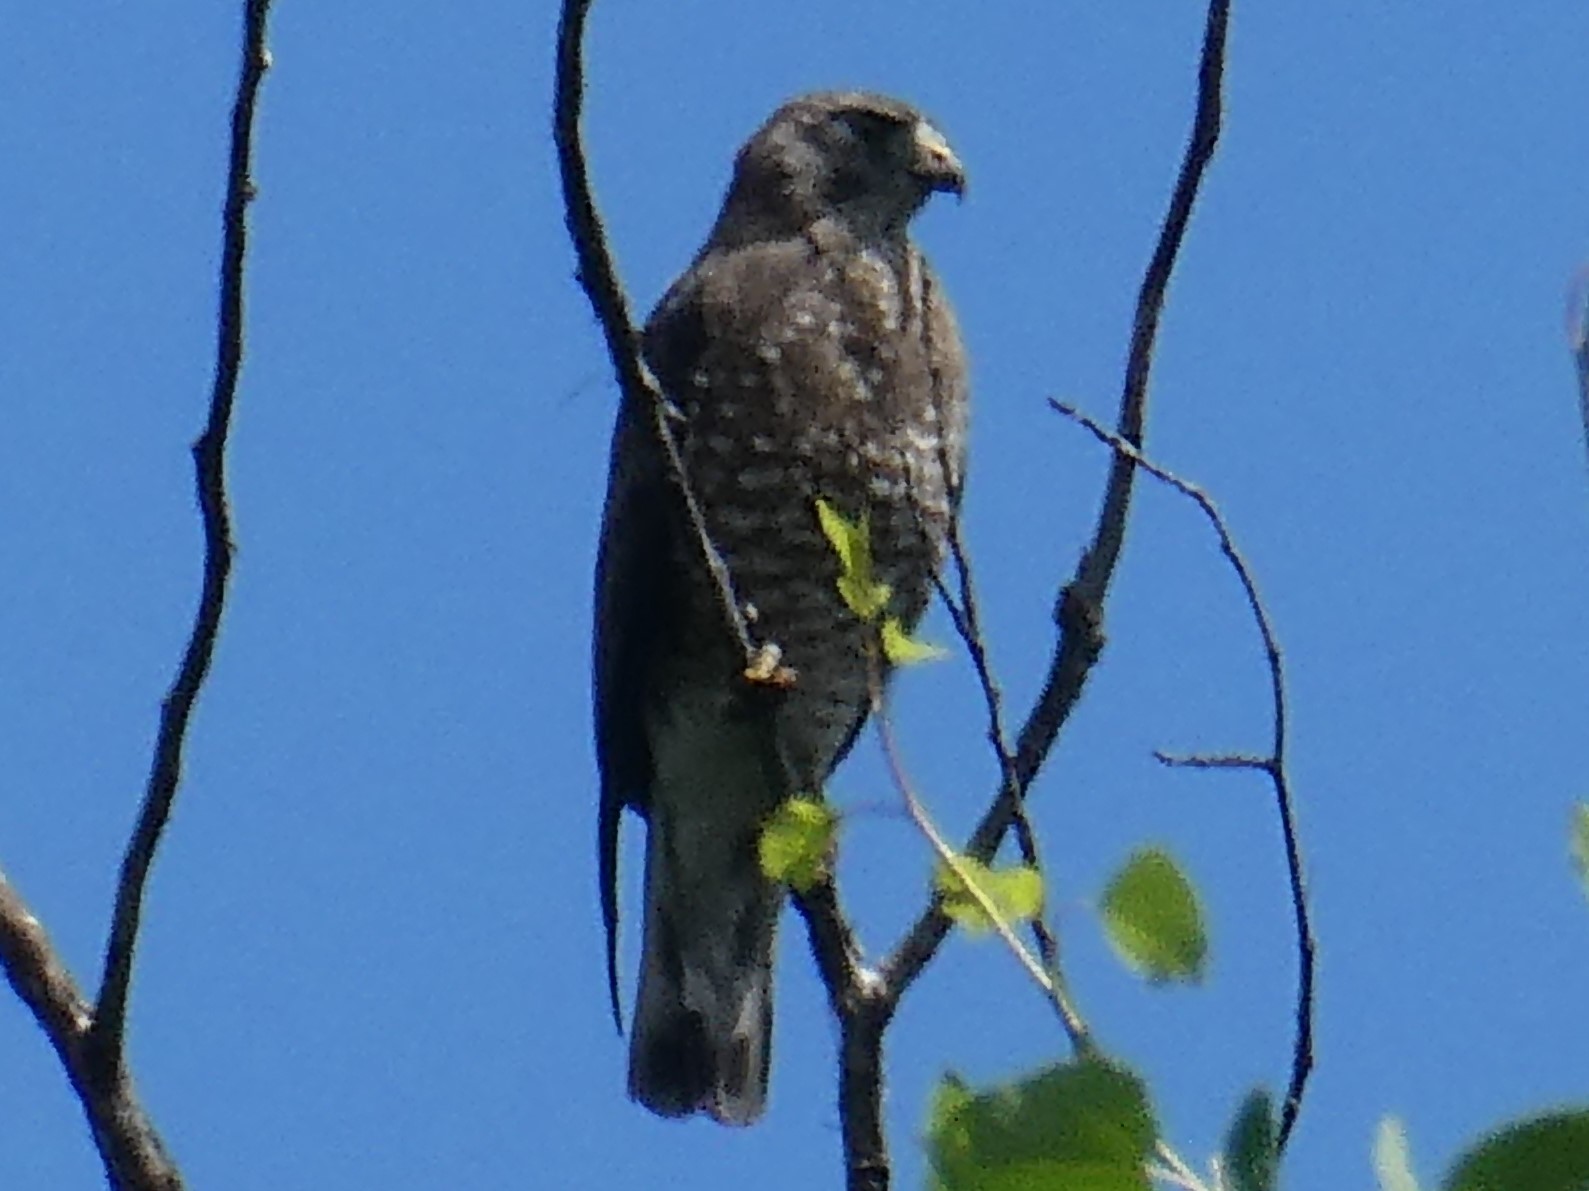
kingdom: Animalia
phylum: Chordata
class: Aves
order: Accipitriformes
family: Accipitridae
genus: Buteo
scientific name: Buteo platypterus
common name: Broad-winged hawk
